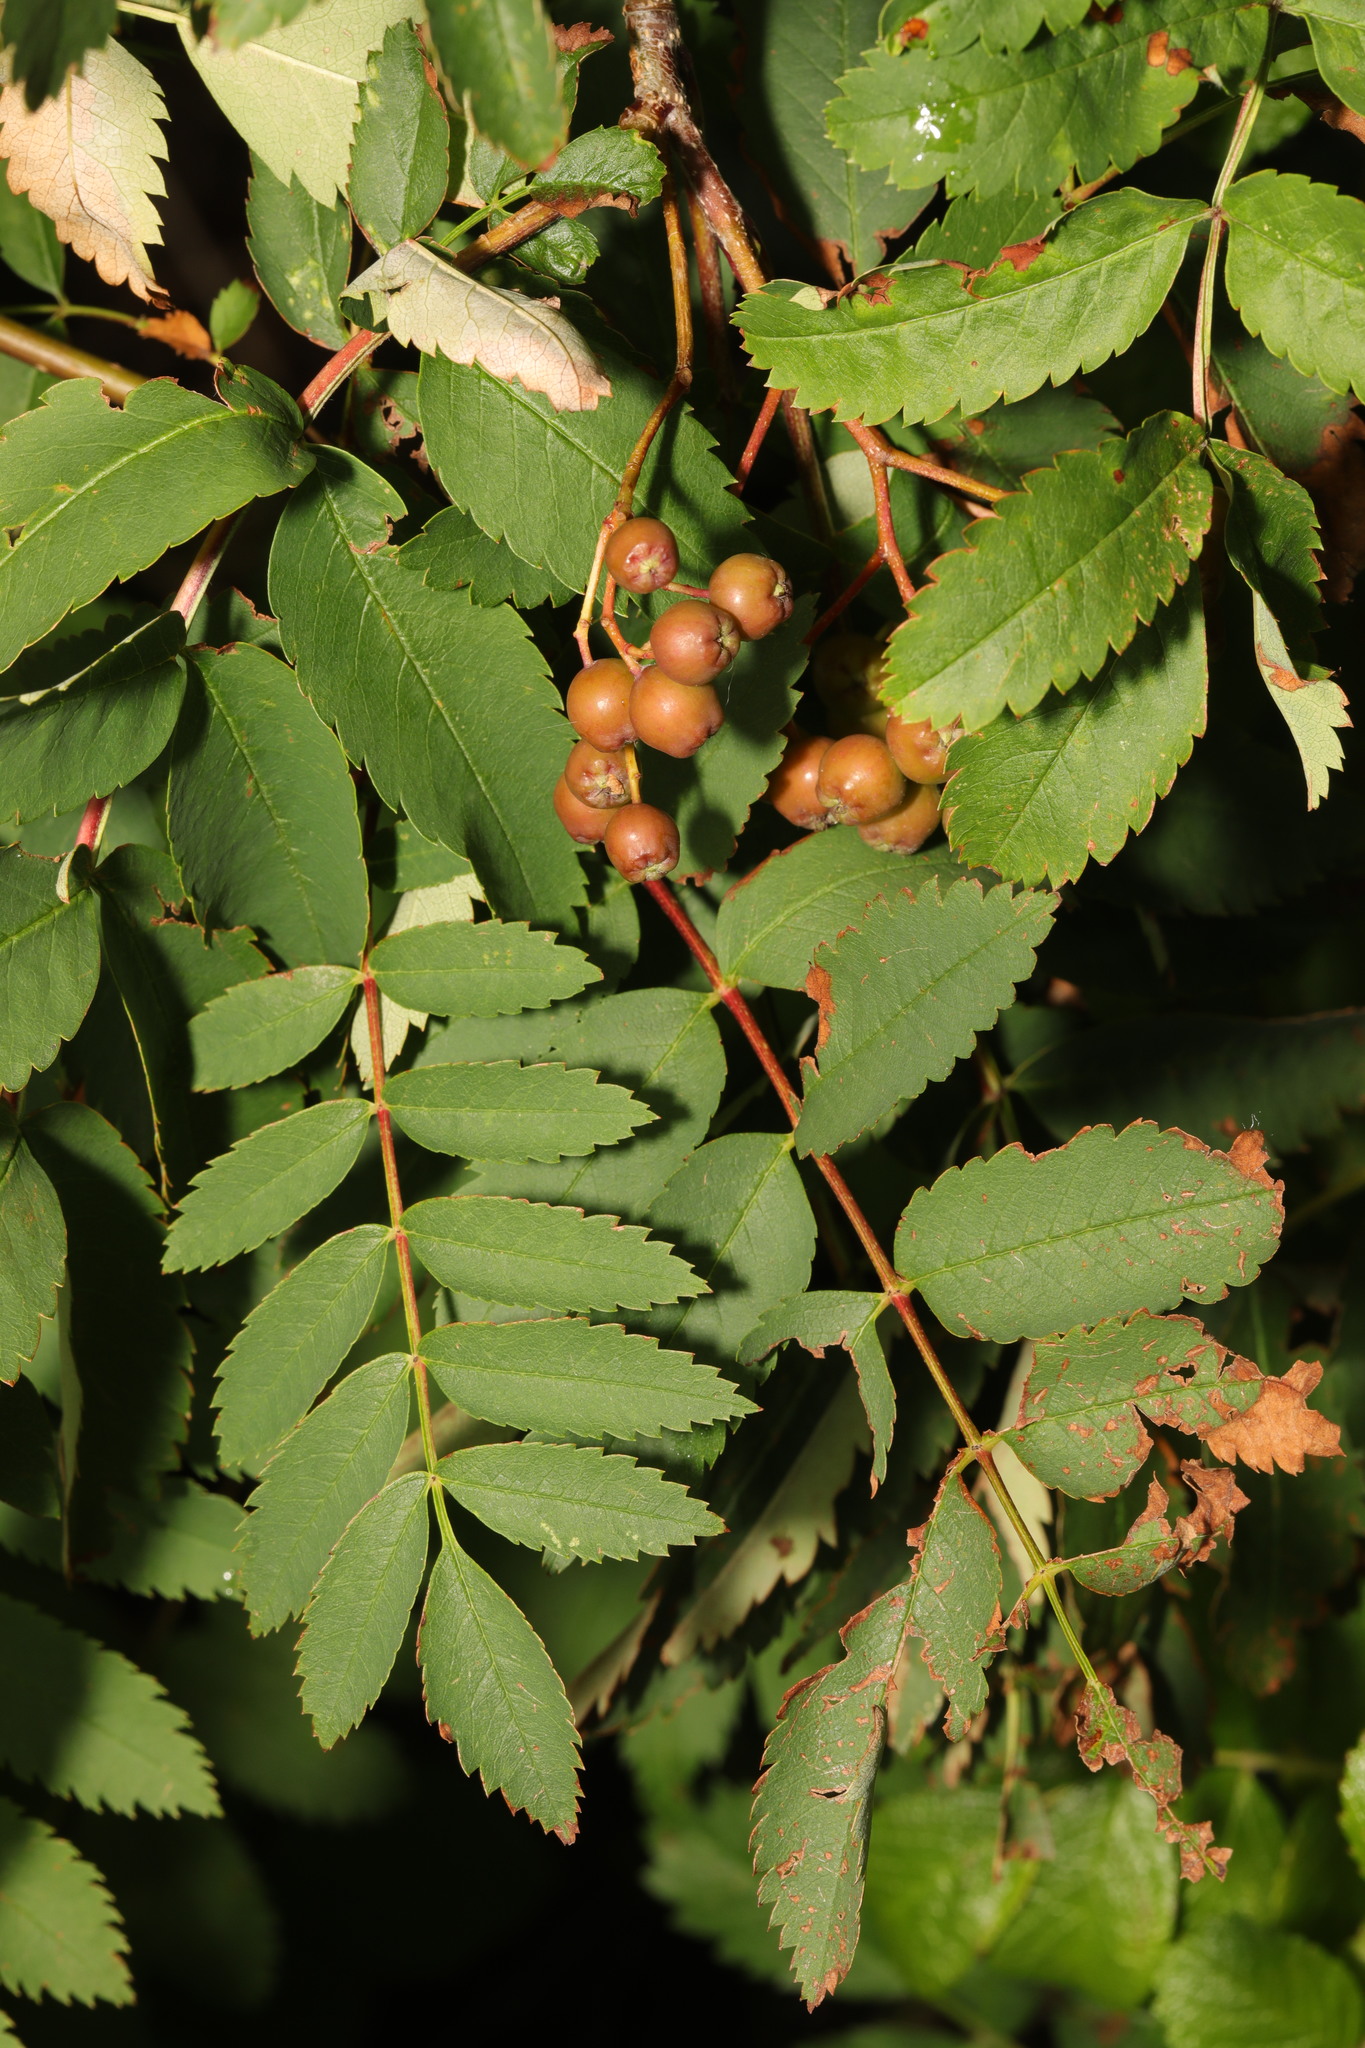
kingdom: Plantae
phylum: Tracheophyta
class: Magnoliopsida
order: Rosales
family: Rosaceae
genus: Sorbus
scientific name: Sorbus aucuparia
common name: Rowan
